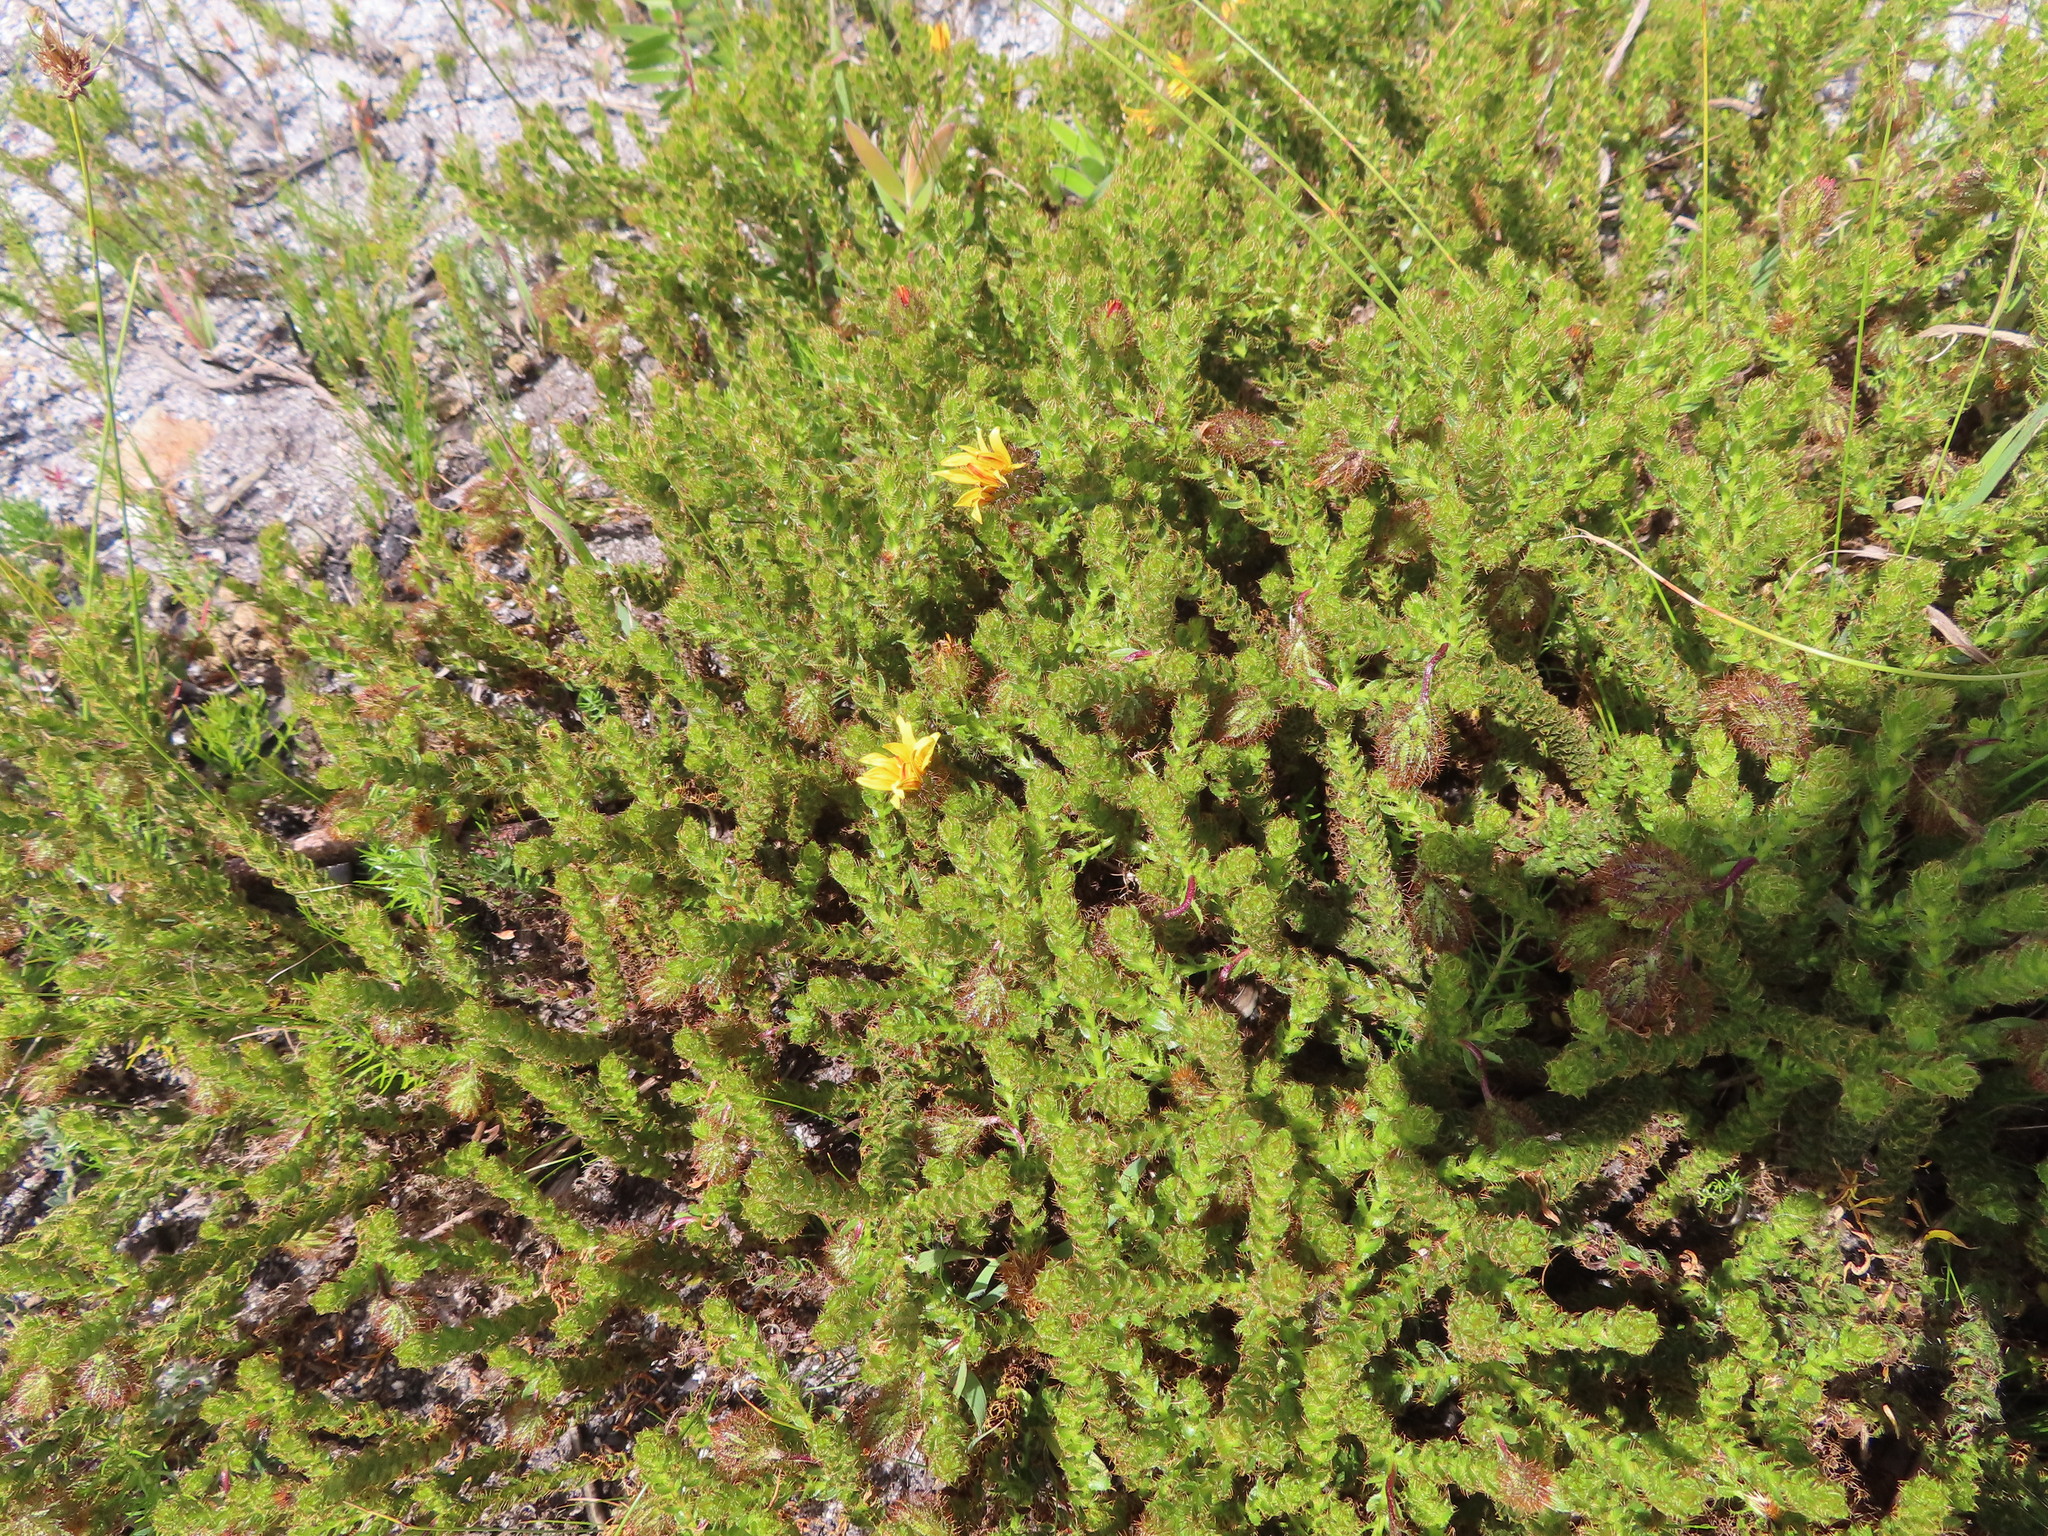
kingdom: Plantae
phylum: Tracheophyta
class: Magnoliopsida
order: Asterales
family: Asteraceae
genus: Cullumia
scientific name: Cullumia selago
